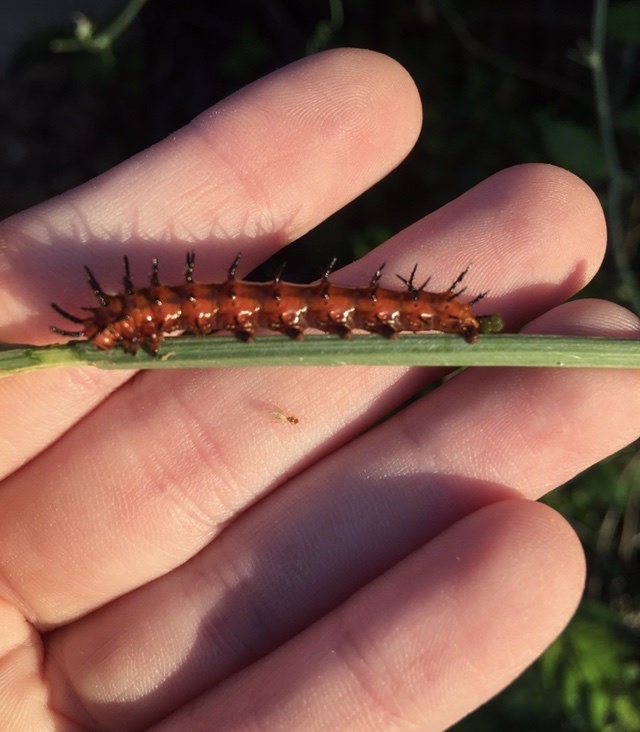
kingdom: Animalia
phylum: Arthropoda
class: Insecta
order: Lepidoptera
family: Nymphalidae
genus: Dione
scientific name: Dione vanillae
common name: Gulf fritillary
